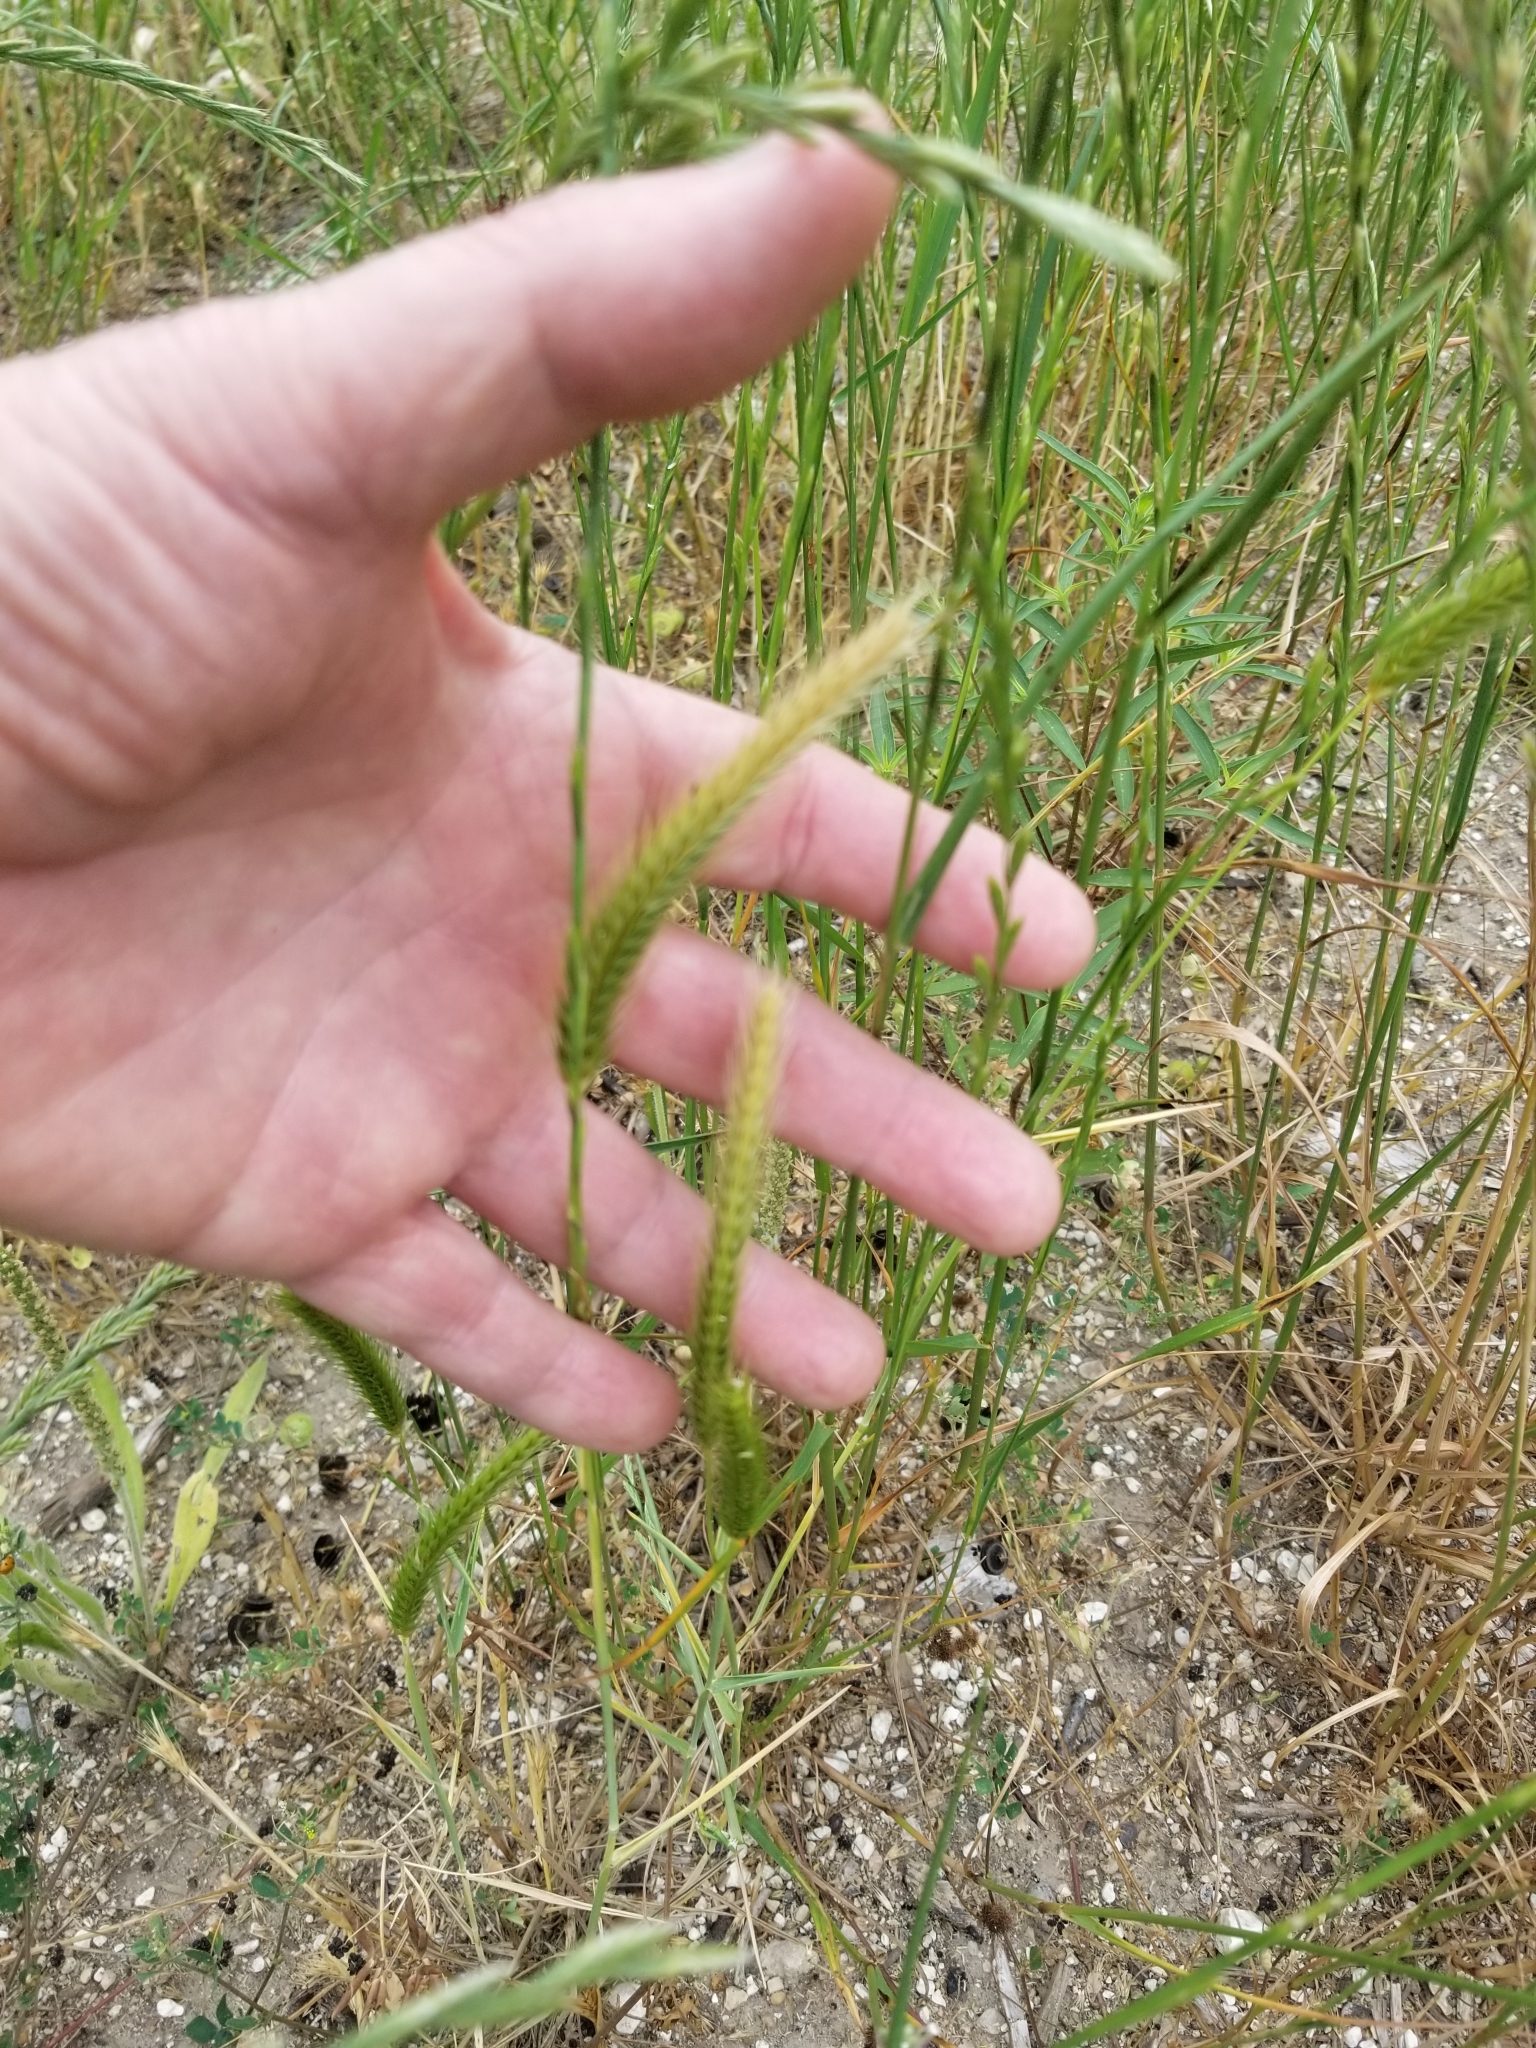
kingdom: Plantae
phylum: Tracheophyta
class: Liliopsida
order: Poales
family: Poaceae
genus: Hordeum
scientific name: Hordeum pusillum
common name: Little barley
